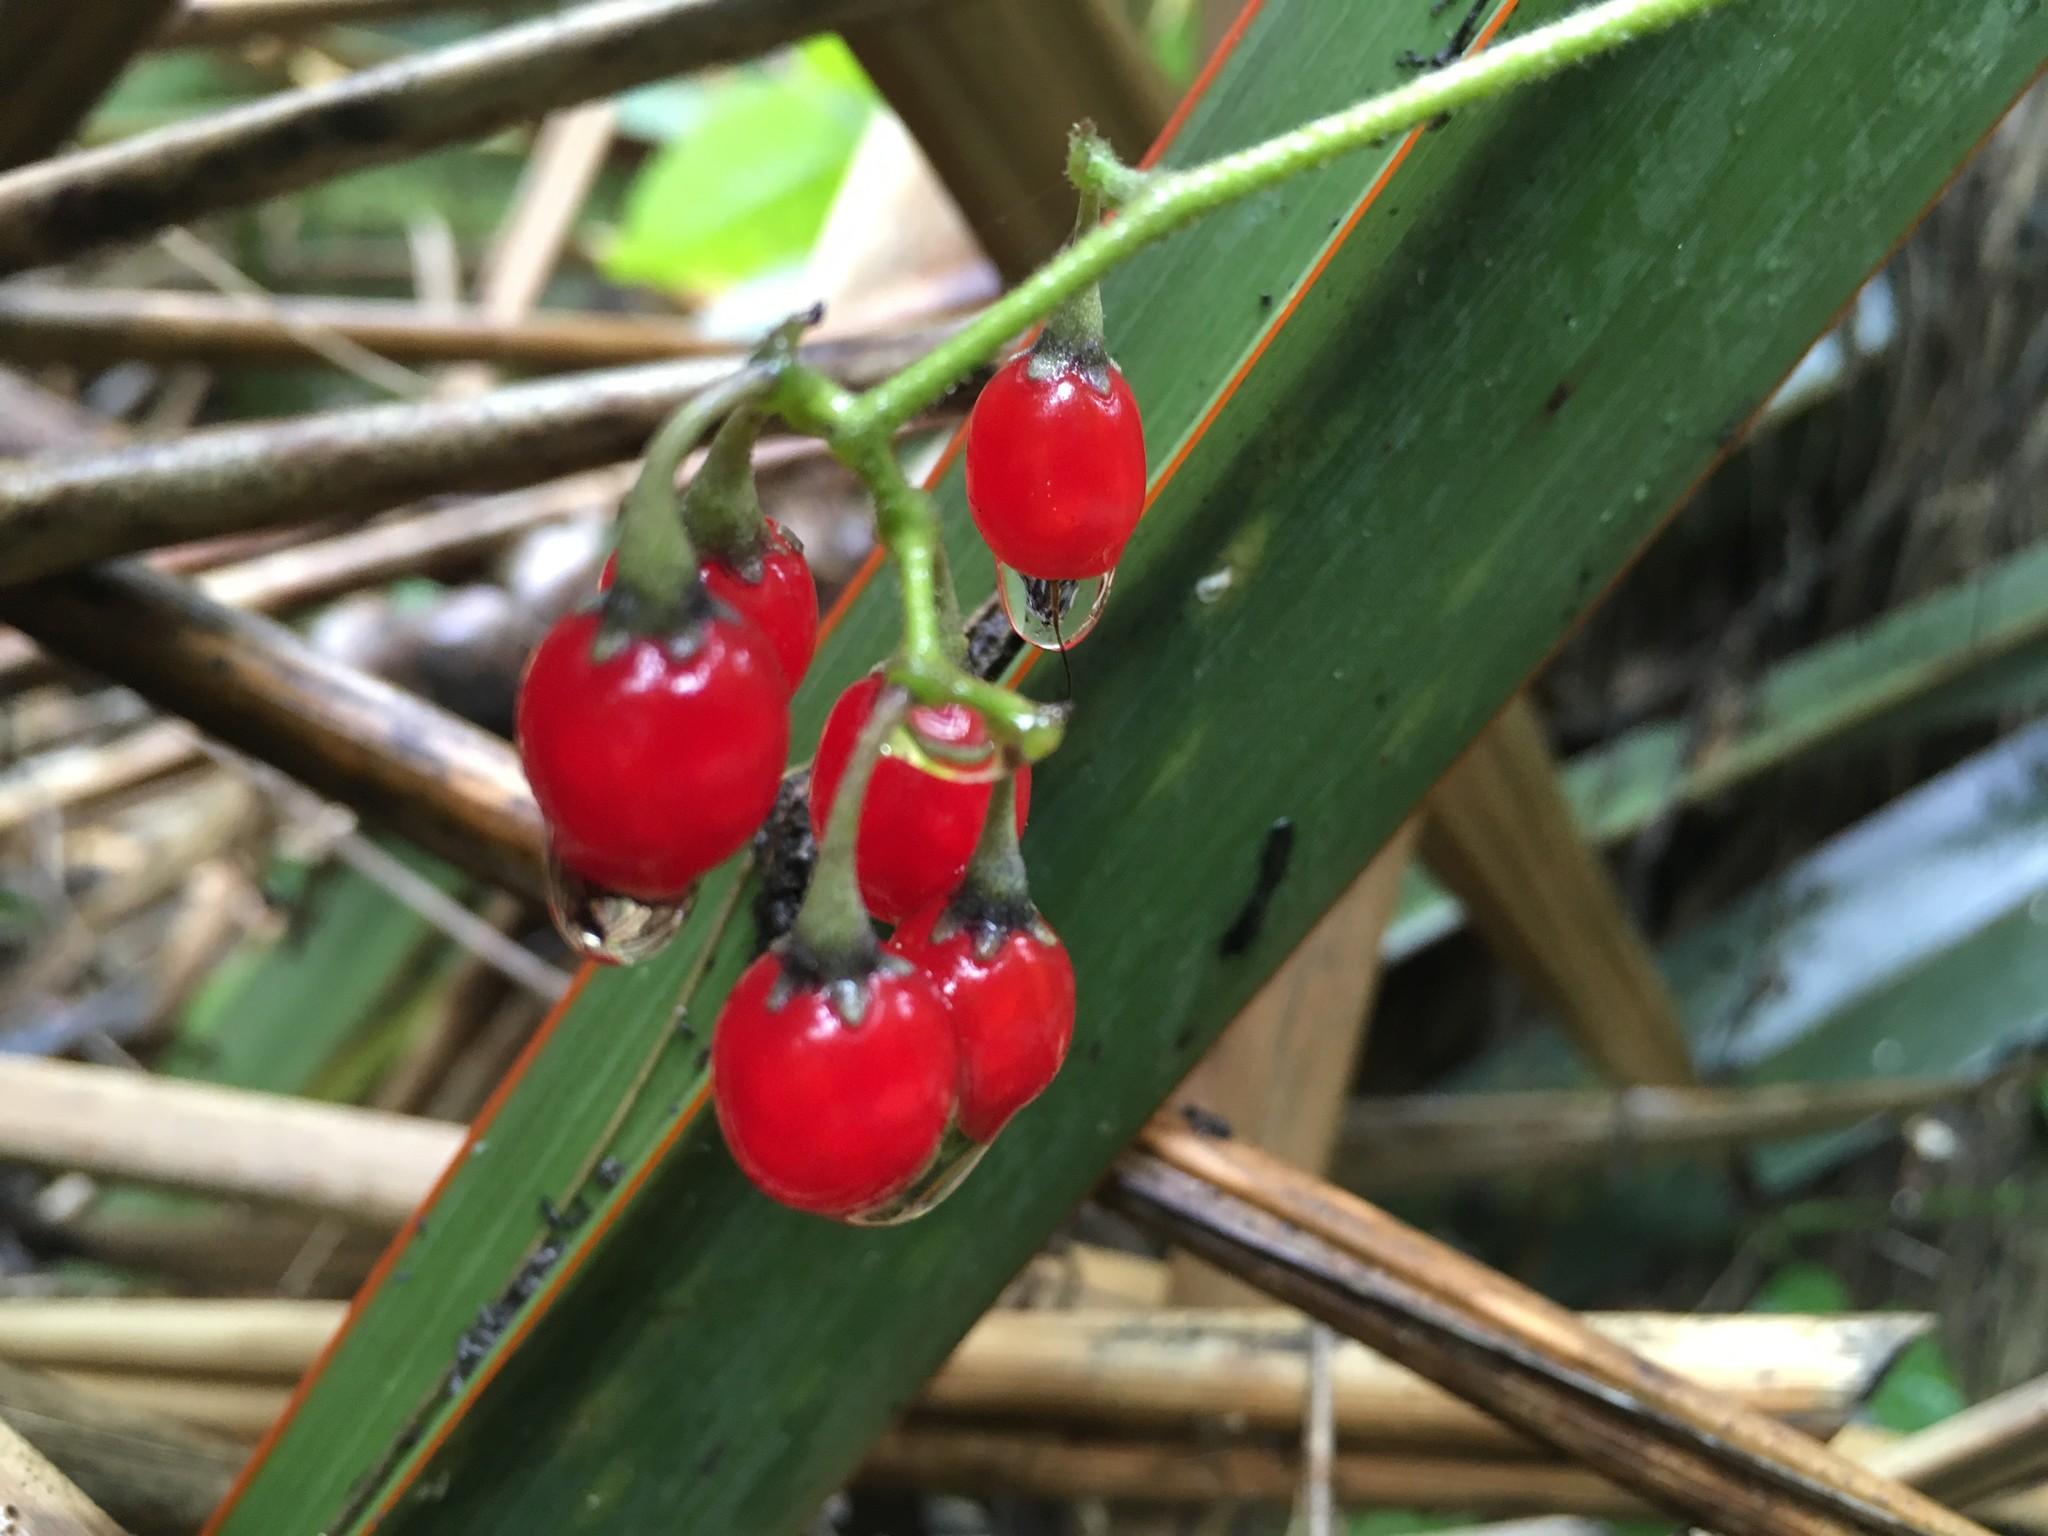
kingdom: Plantae
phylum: Tracheophyta
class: Magnoliopsida
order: Solanales
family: Solanaceae
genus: Solanum
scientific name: Solanum dulcamara
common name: Climbing nightshade
